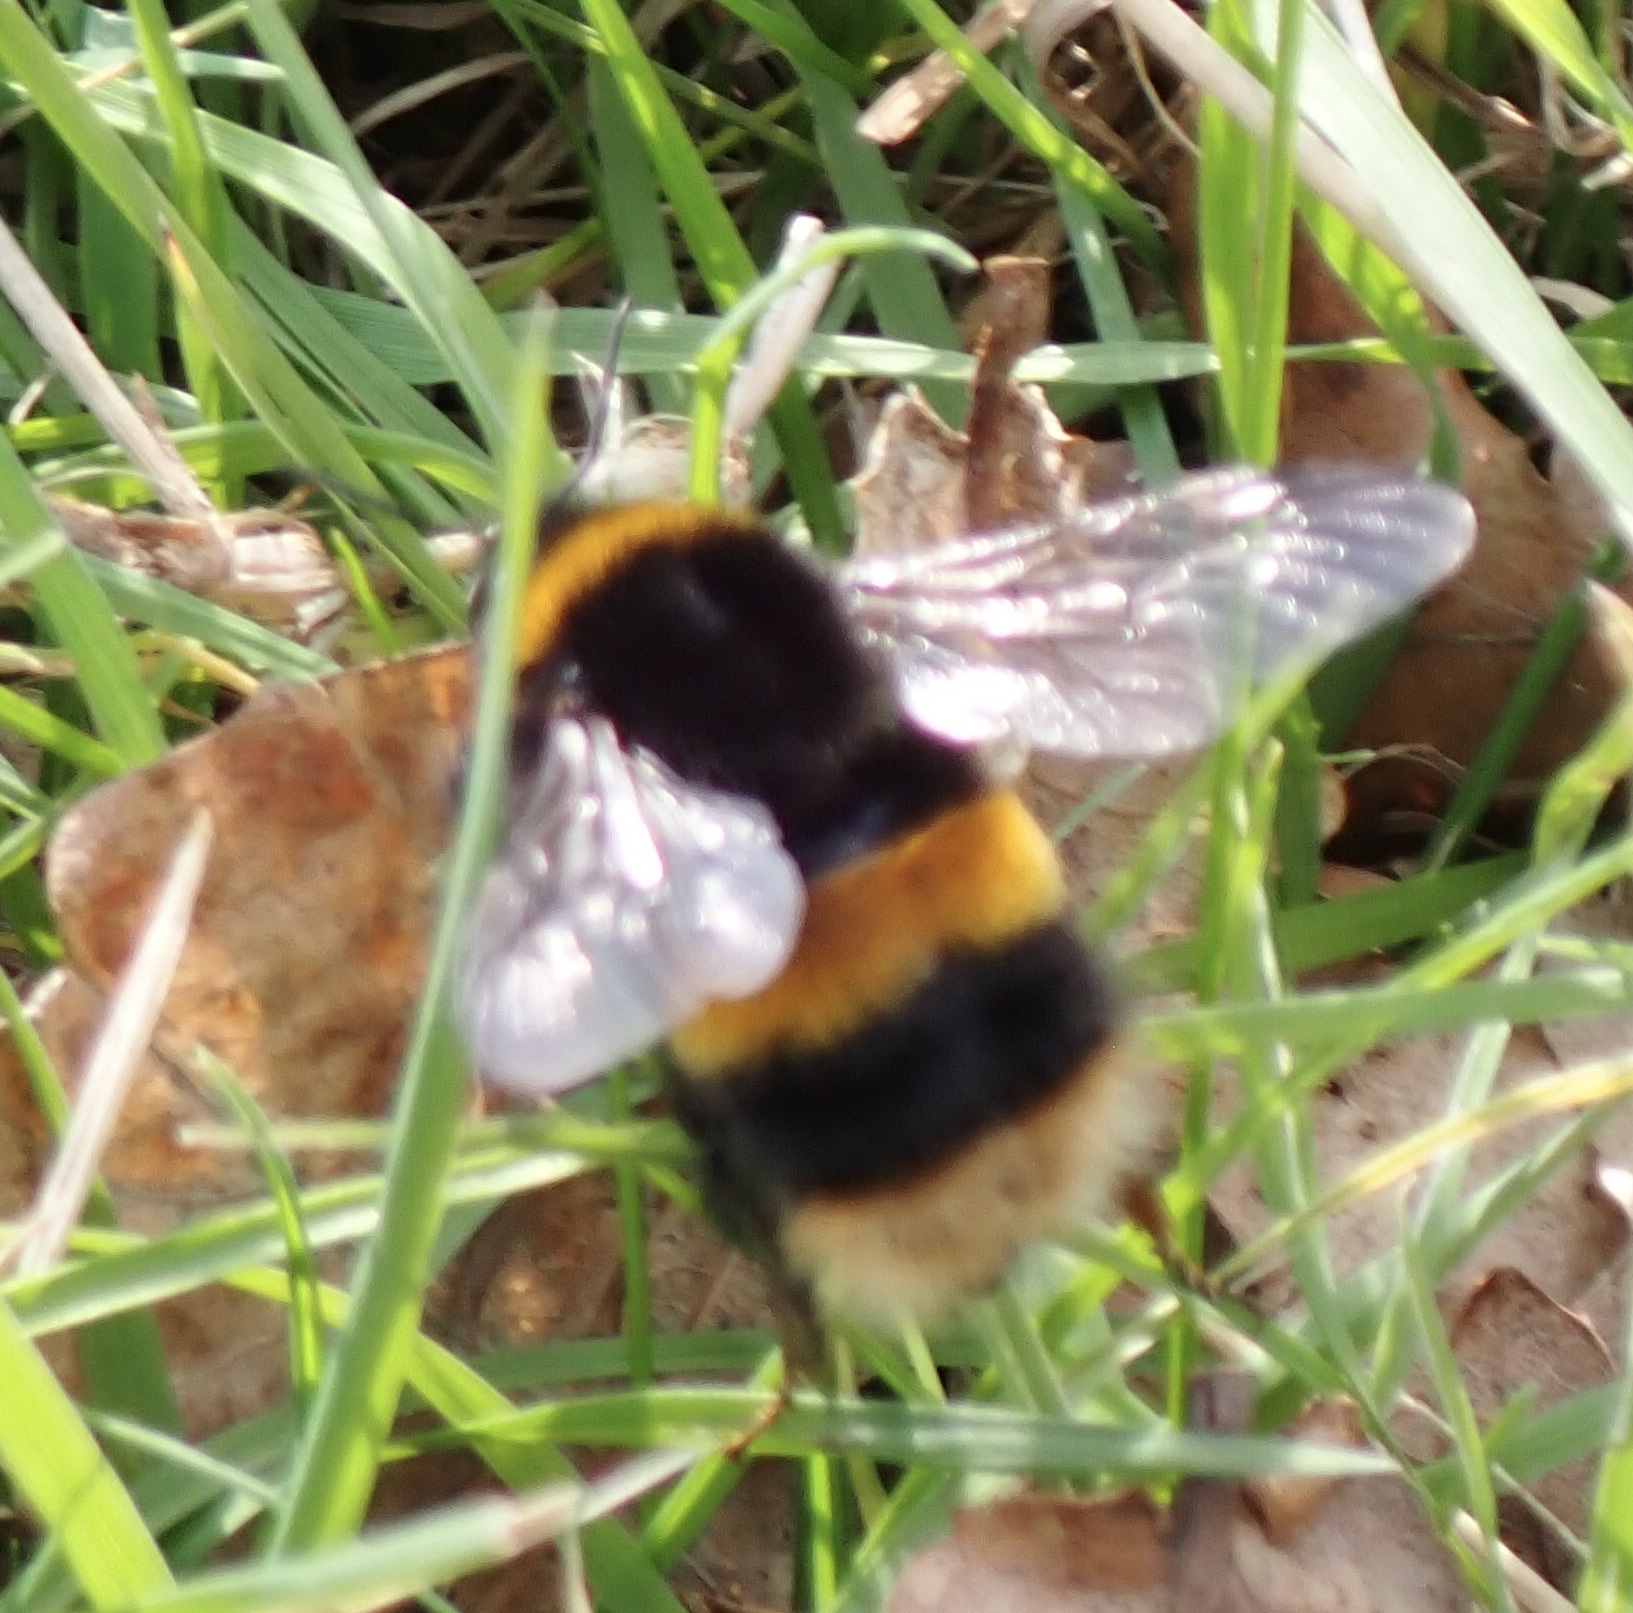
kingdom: Animalia
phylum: Arthropoda
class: Insecta
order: Hymenoptera
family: Apidae
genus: Bombus
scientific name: Bombus terrestris
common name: Buff-tailed bumblebee
